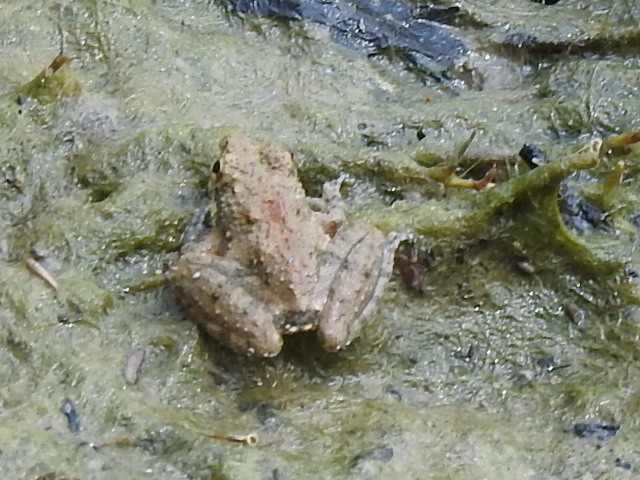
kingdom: Animalia
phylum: Chordata
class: Amphibia
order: Anura
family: Hylidae
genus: Acris
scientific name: Acris blanchardi
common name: Blanchard's cricket frog
